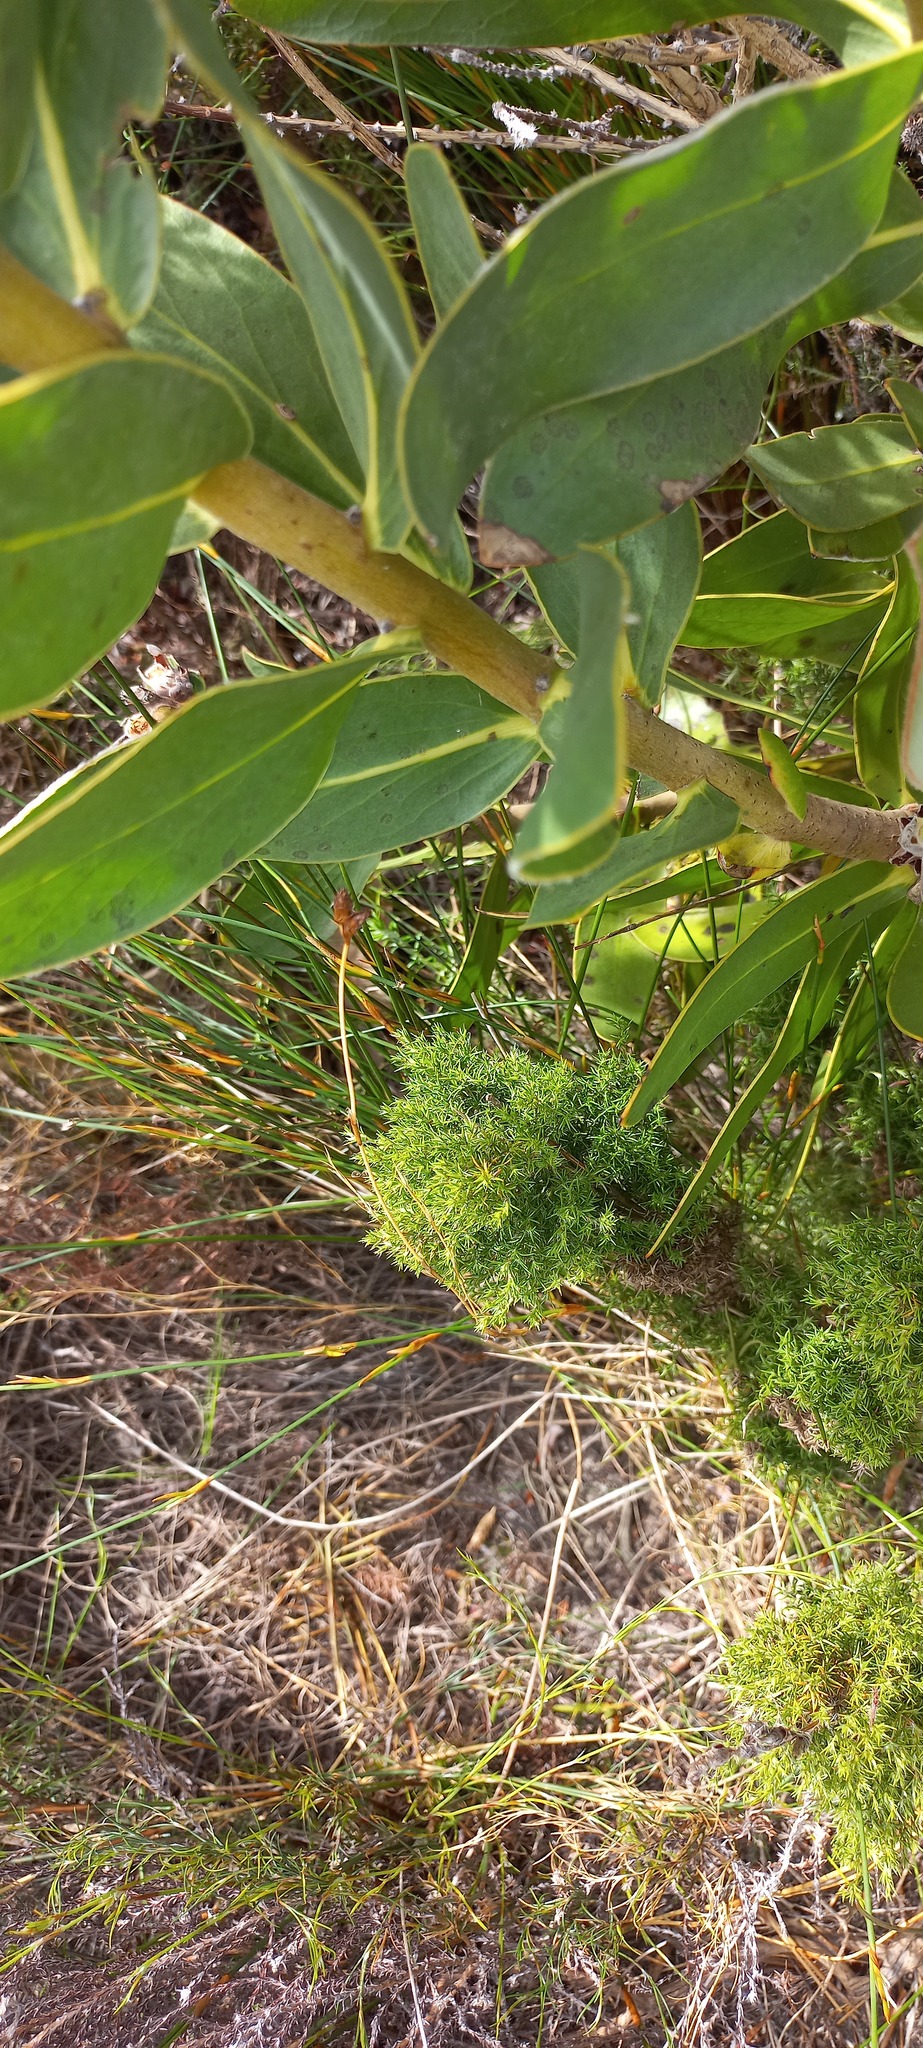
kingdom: Plantae
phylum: Tracheophyta
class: Magnoliopsida
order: Proteales
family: Proteaceae
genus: Protea
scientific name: Protea compacta
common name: Bot river protea
